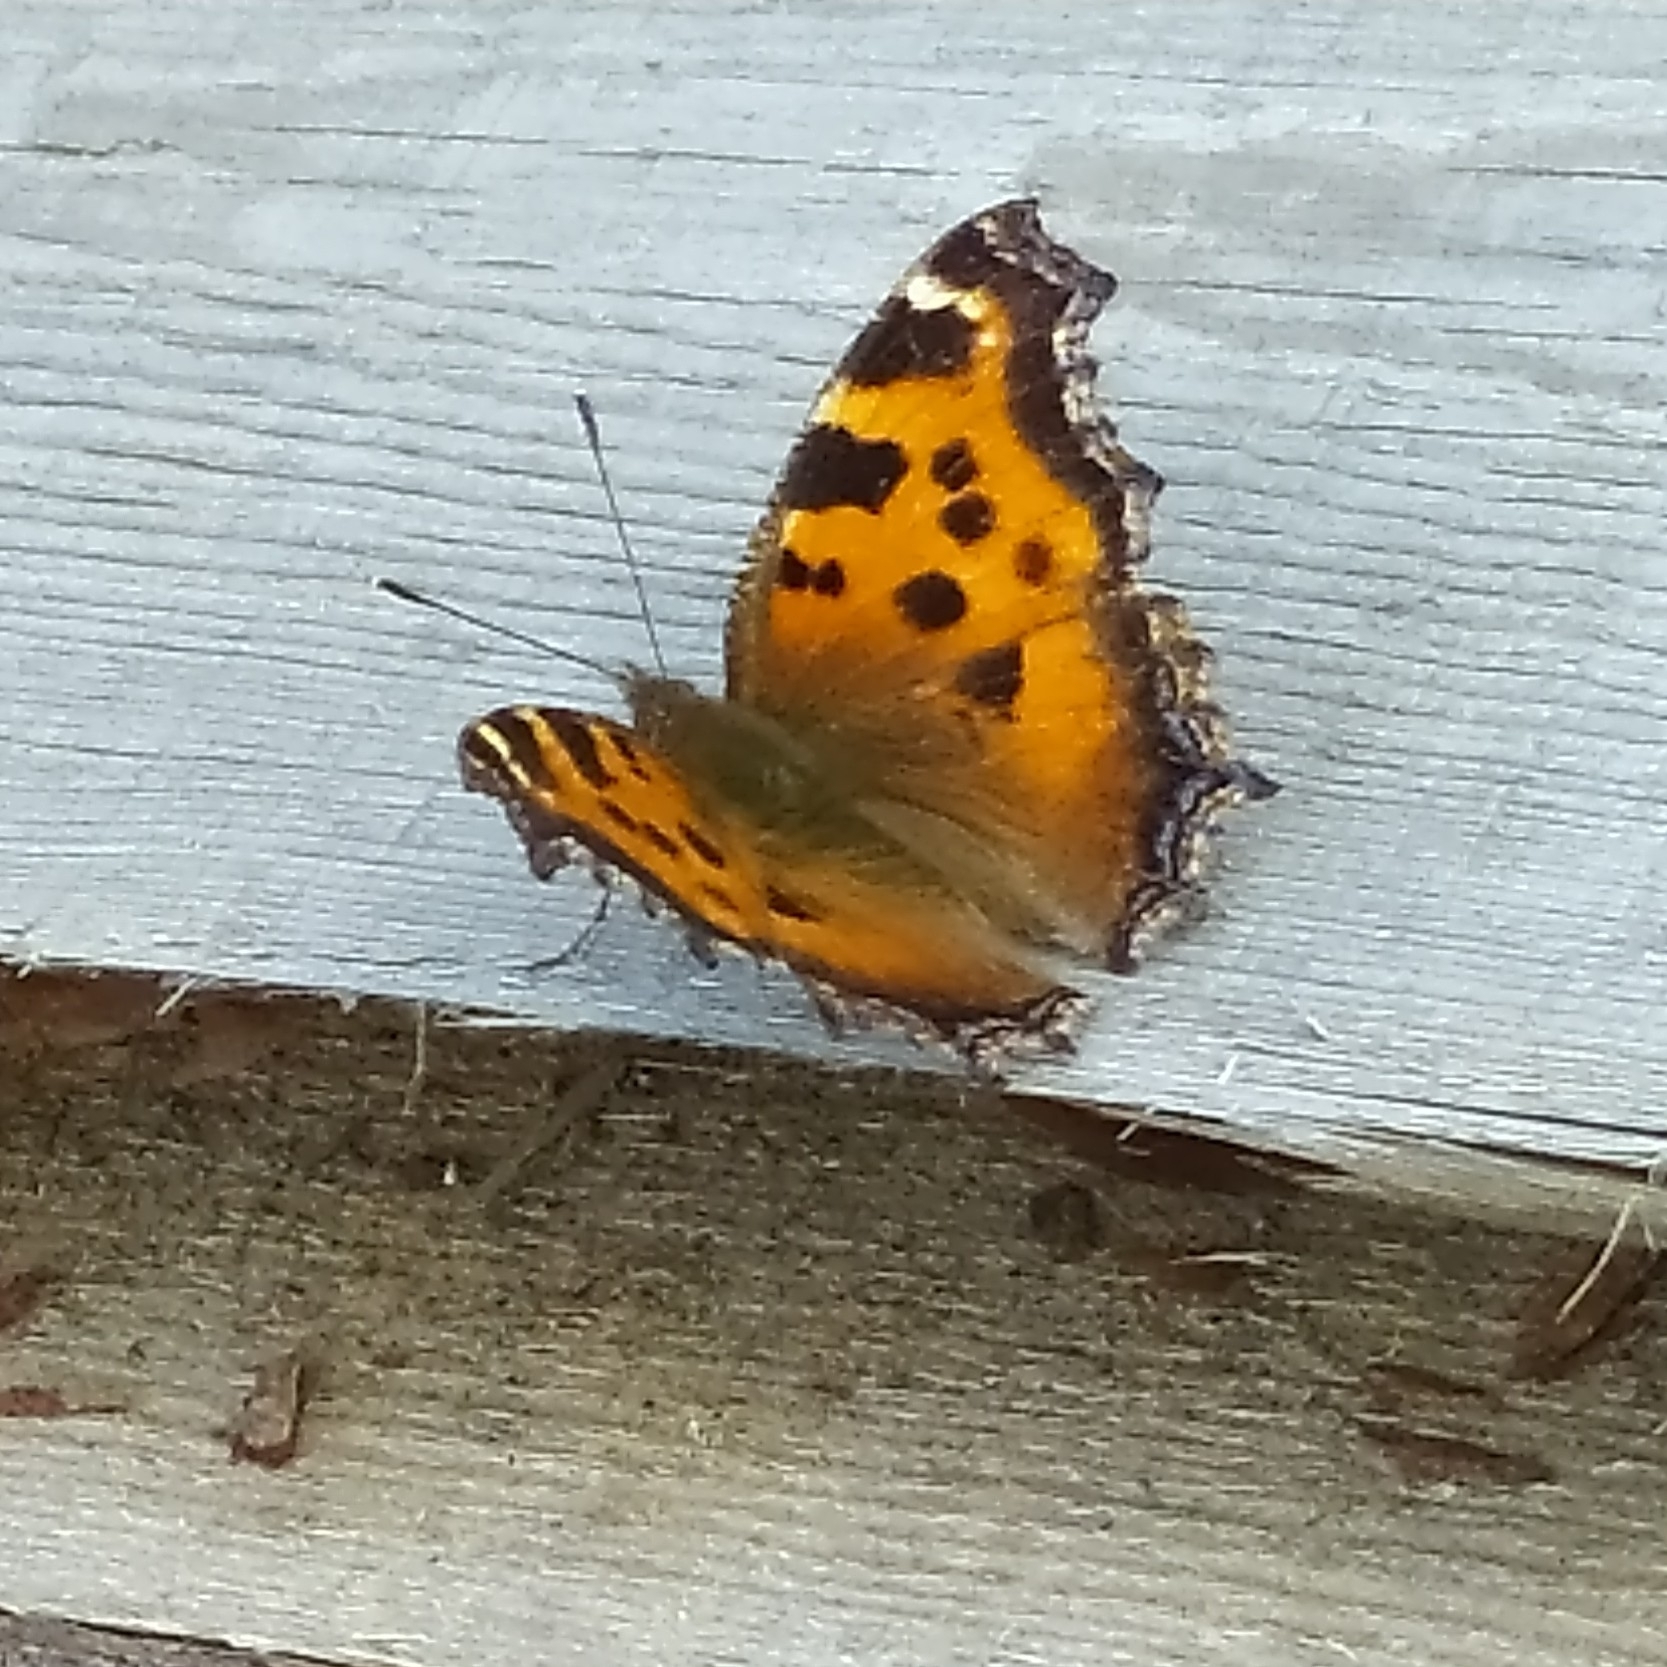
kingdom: Animalia
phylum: Arthropoda
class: Insecta
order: Lepidoptera
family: Nymphalidae
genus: Nymphalis
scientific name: Nymphalis xanthomelas
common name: Scarce tortoiseshell
